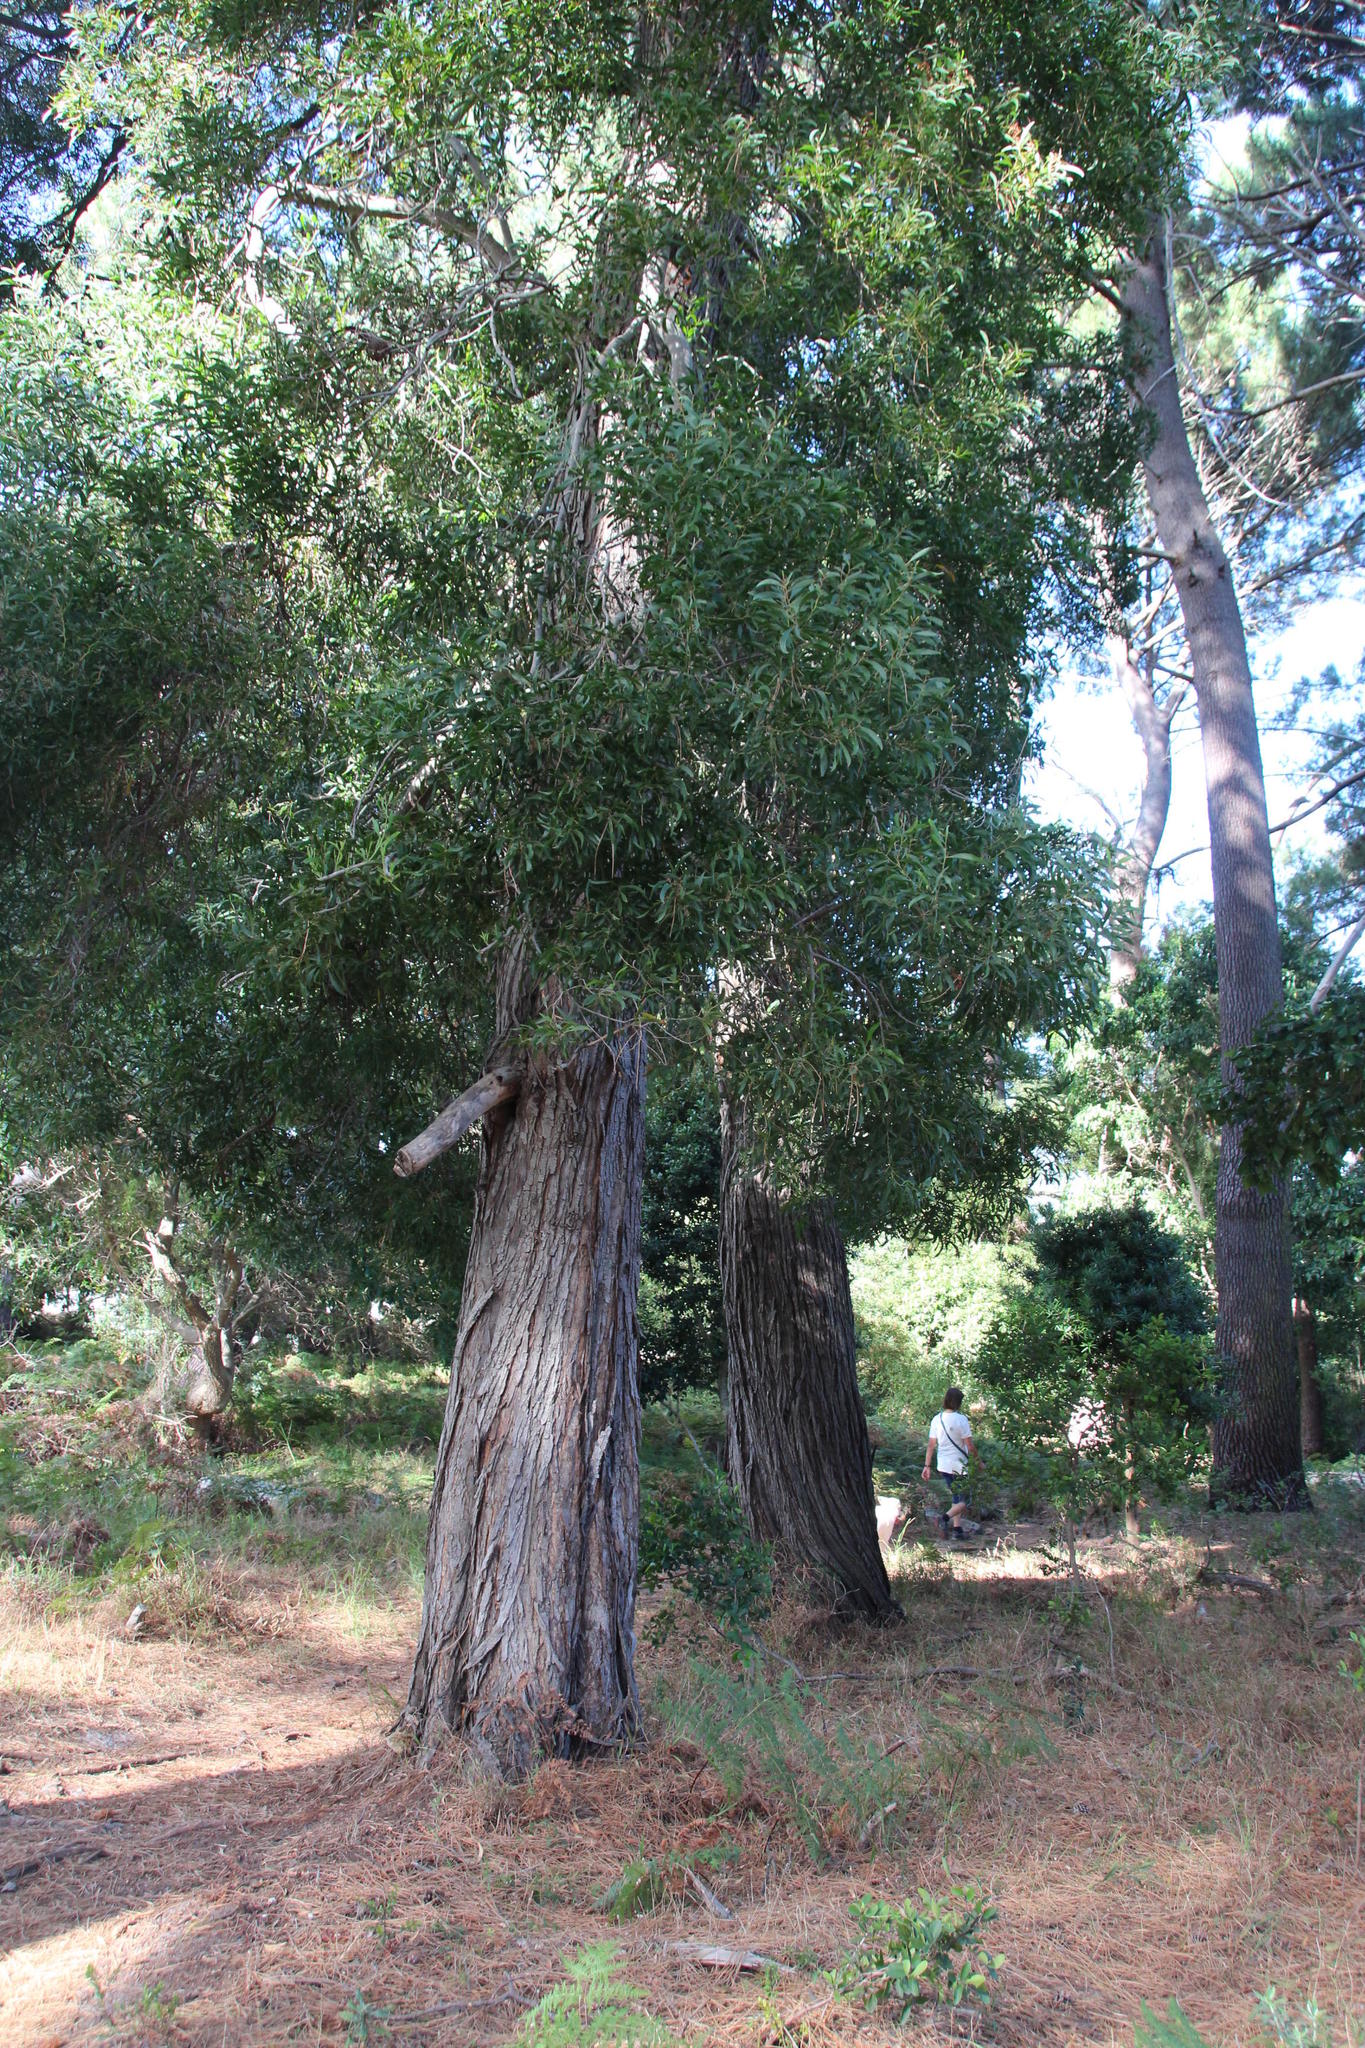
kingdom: Plantae
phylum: Tracheophyta
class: Magnoliopsida
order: Fabales
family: Fabaceae
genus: Acacia
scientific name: Acacia melanoxylon
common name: Blackwood
